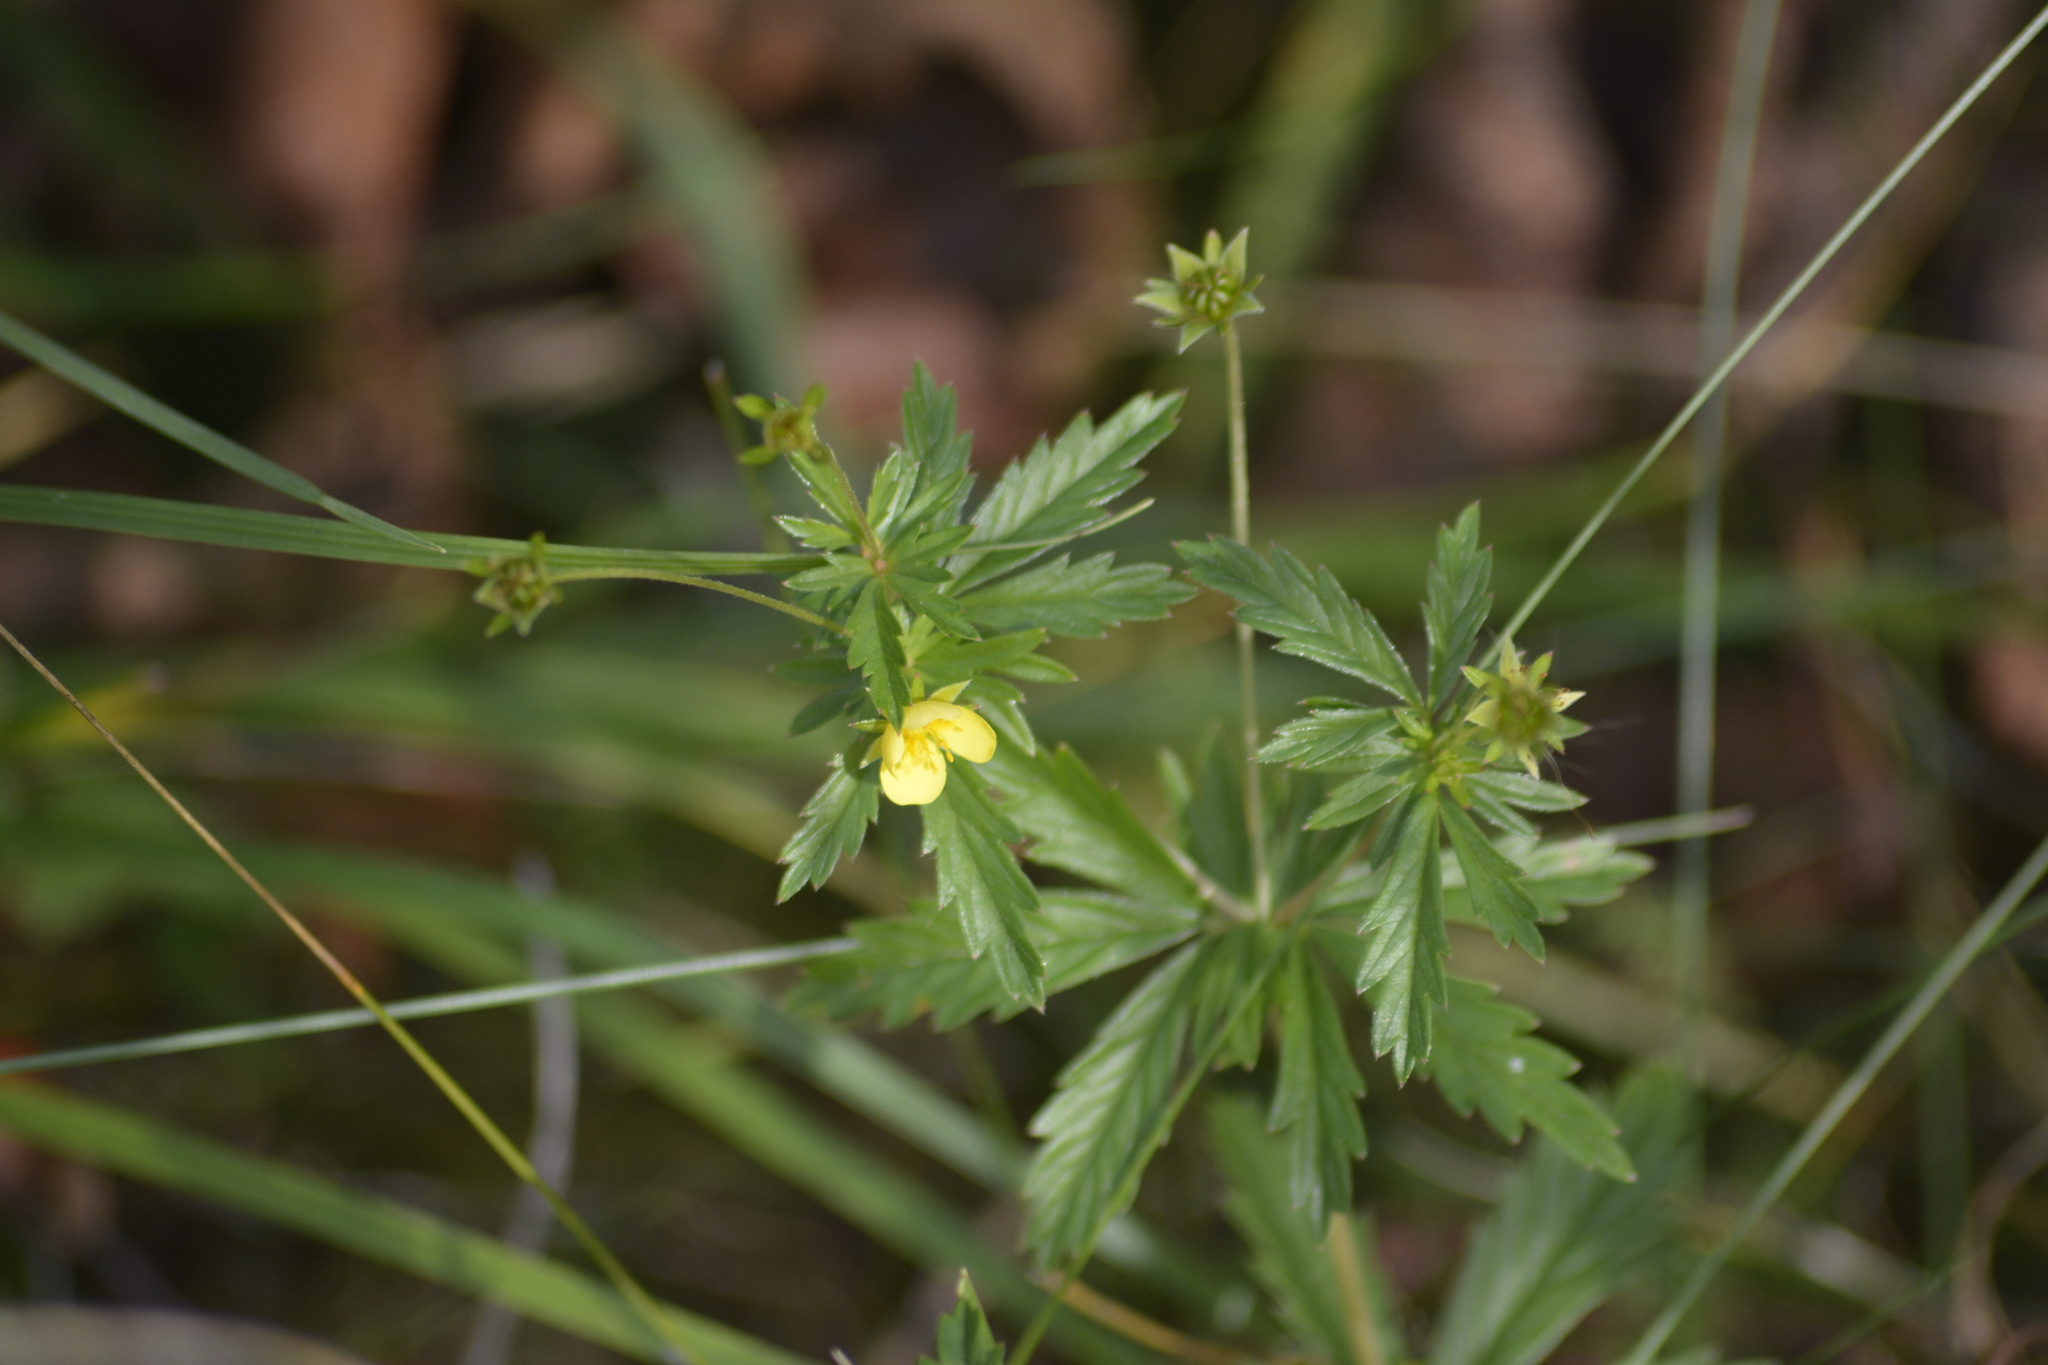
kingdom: Plantae
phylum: Tracheophyta
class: Magnoliopsida
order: Rosales
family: Rosaceae
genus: Potentilla
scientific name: Potentilla erecta
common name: Tormentil
